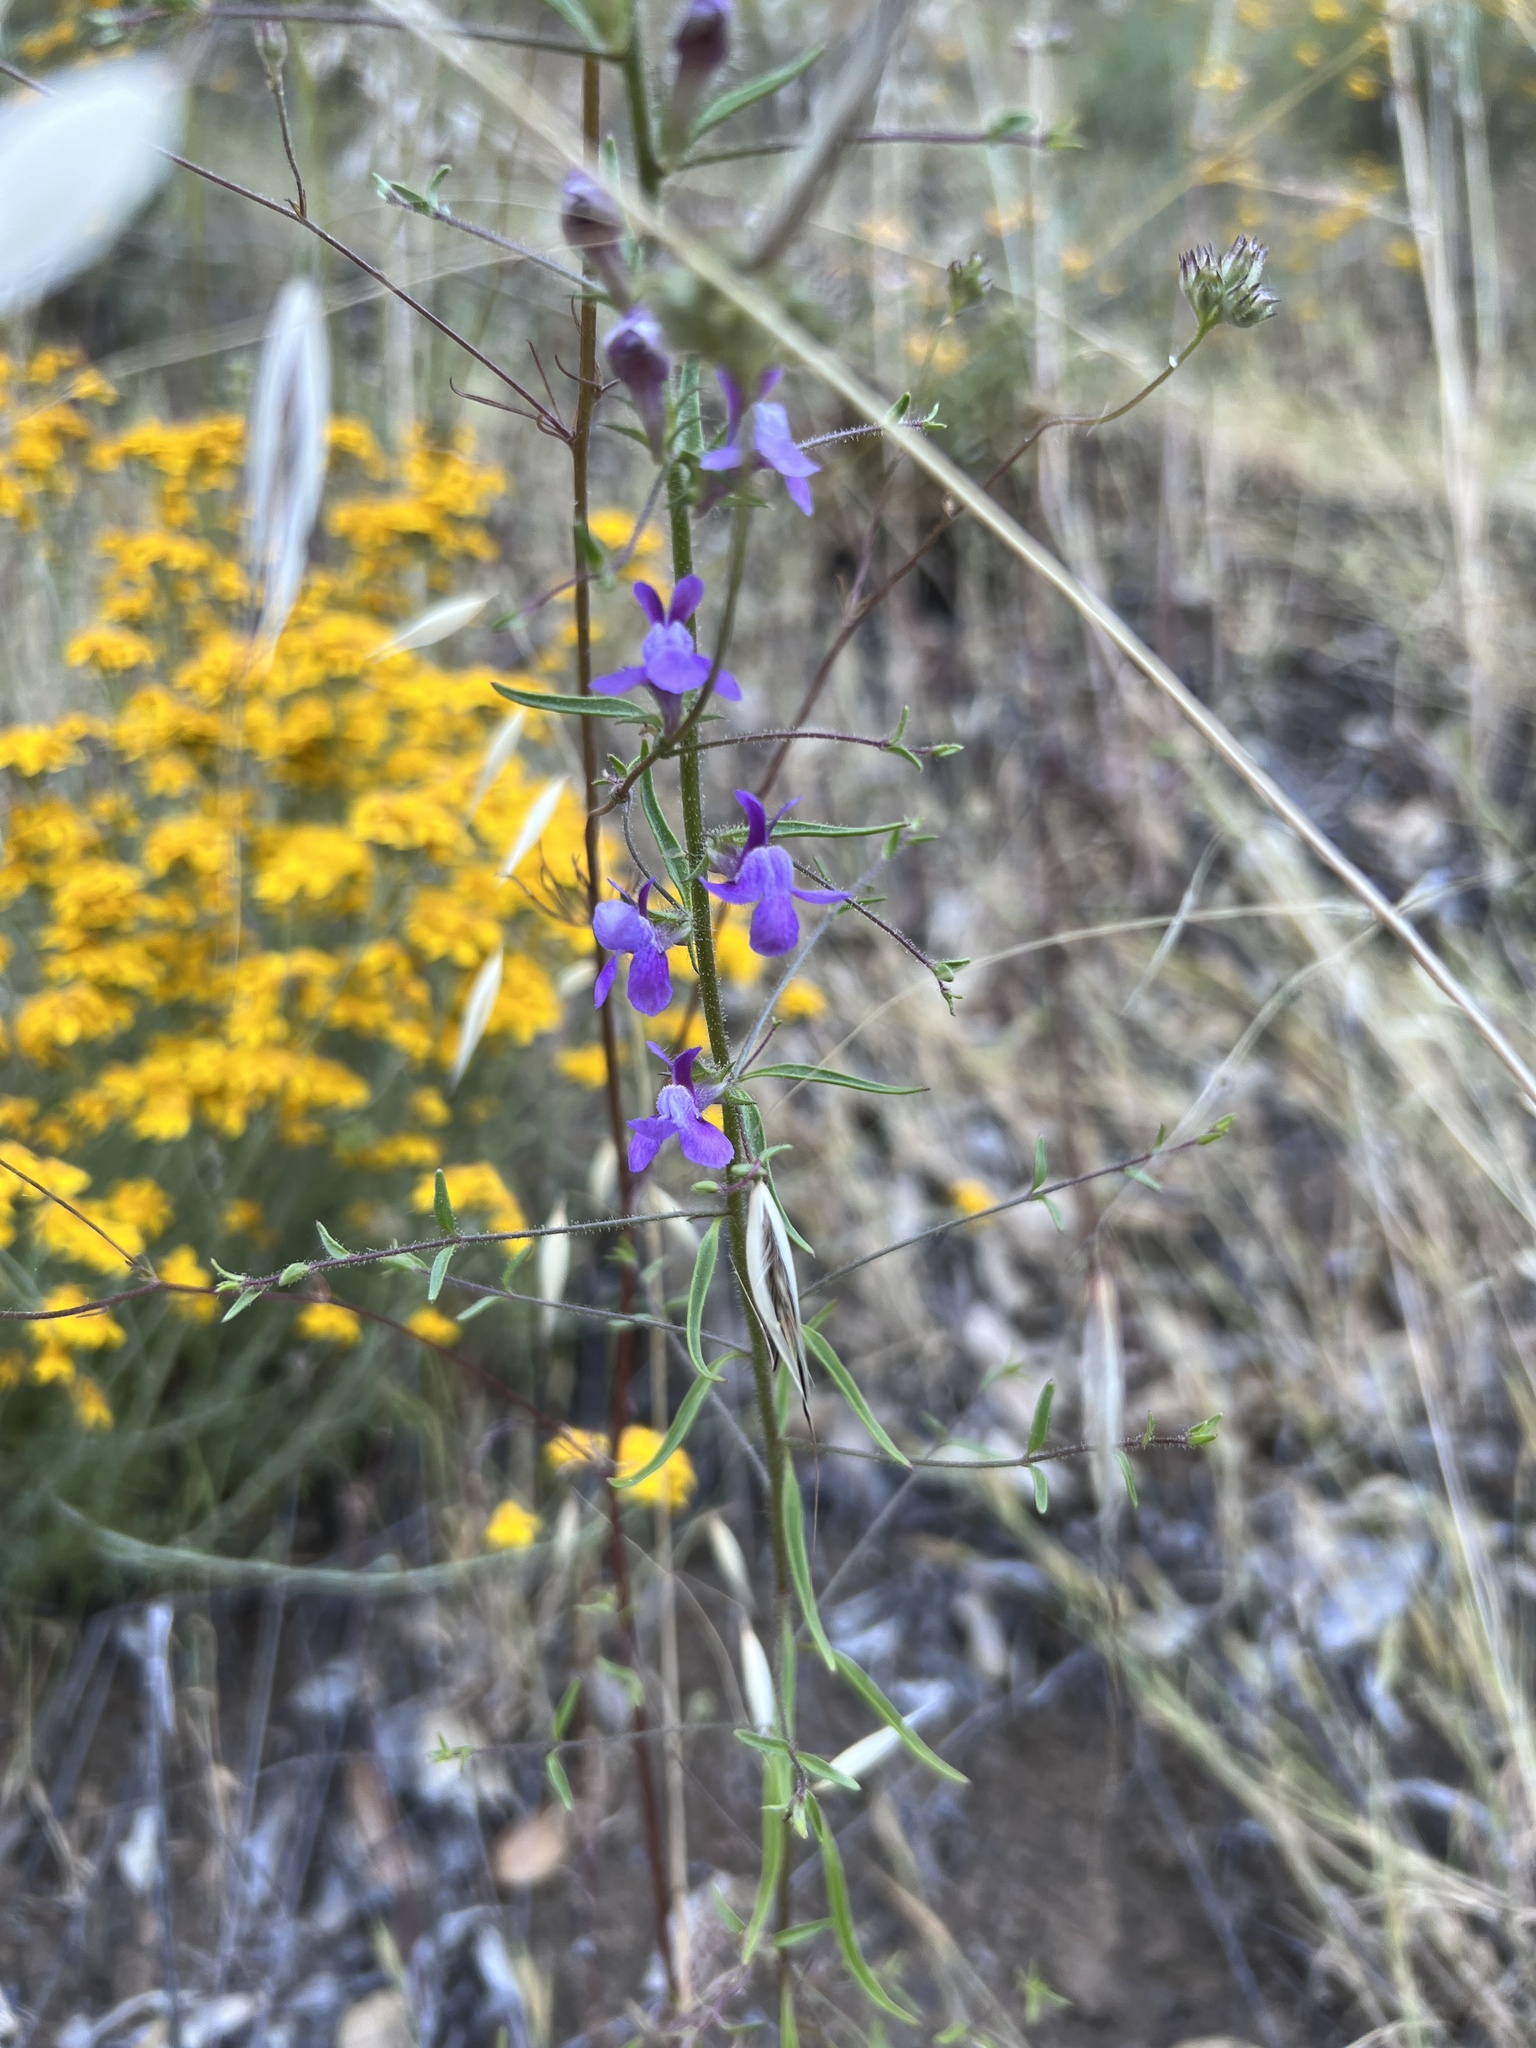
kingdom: Plantae
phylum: Tracheophyta
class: Magnoliopsida
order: Lamiales
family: Plantaginaceae
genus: Sairocarpus
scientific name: Sairocarpus vexillocalyculatus
